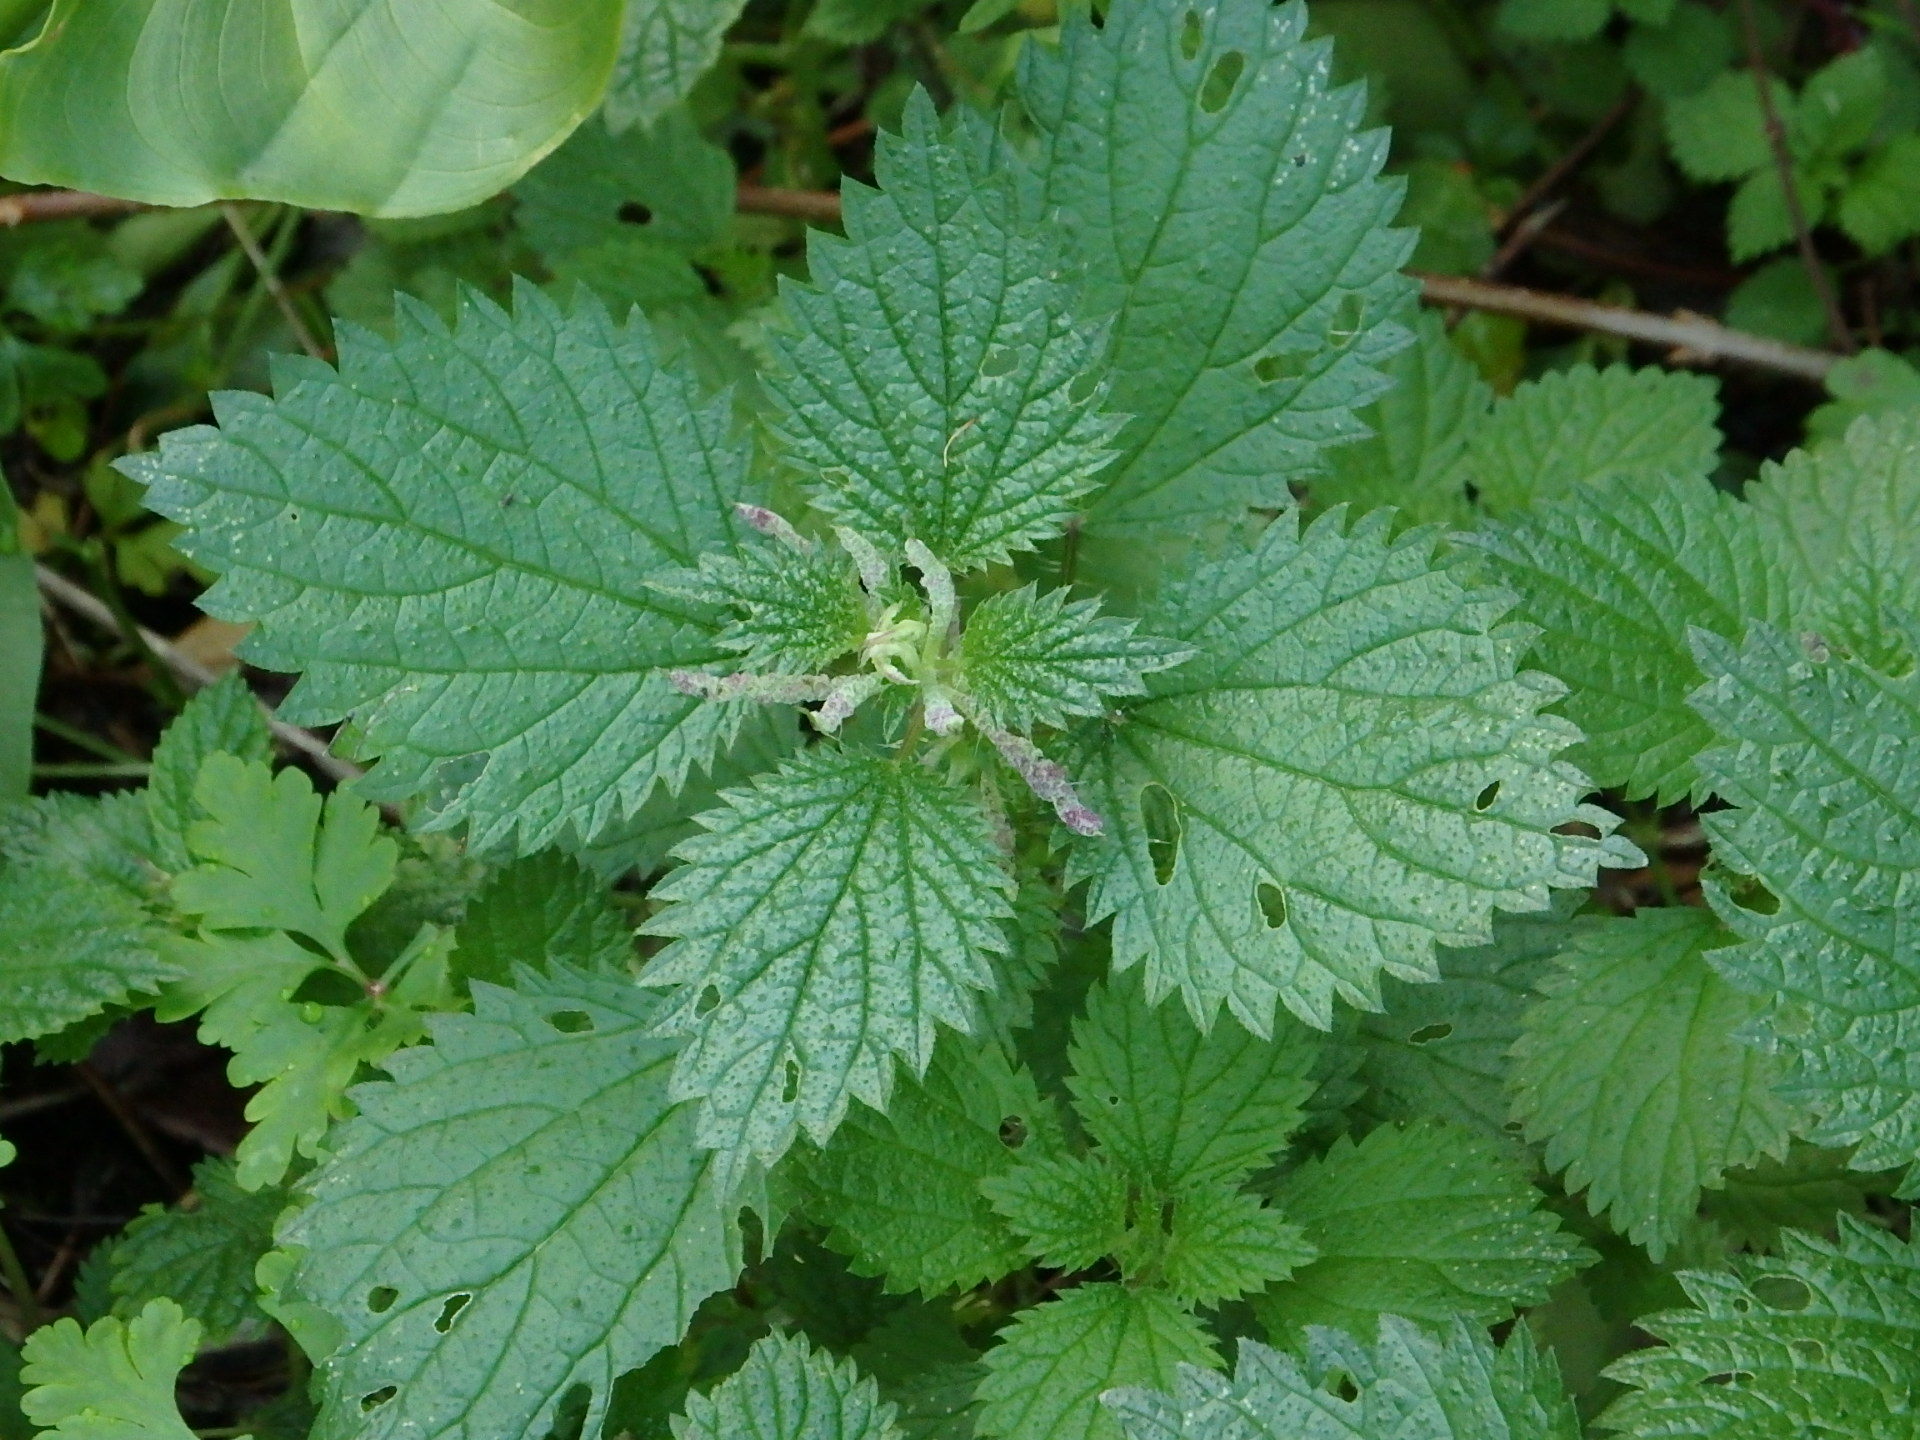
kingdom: Plantae
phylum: Tracheophyta
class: Magnoliopsida
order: Rosales
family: Urticaceae
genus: Urtica
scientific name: Urtica membranacea
